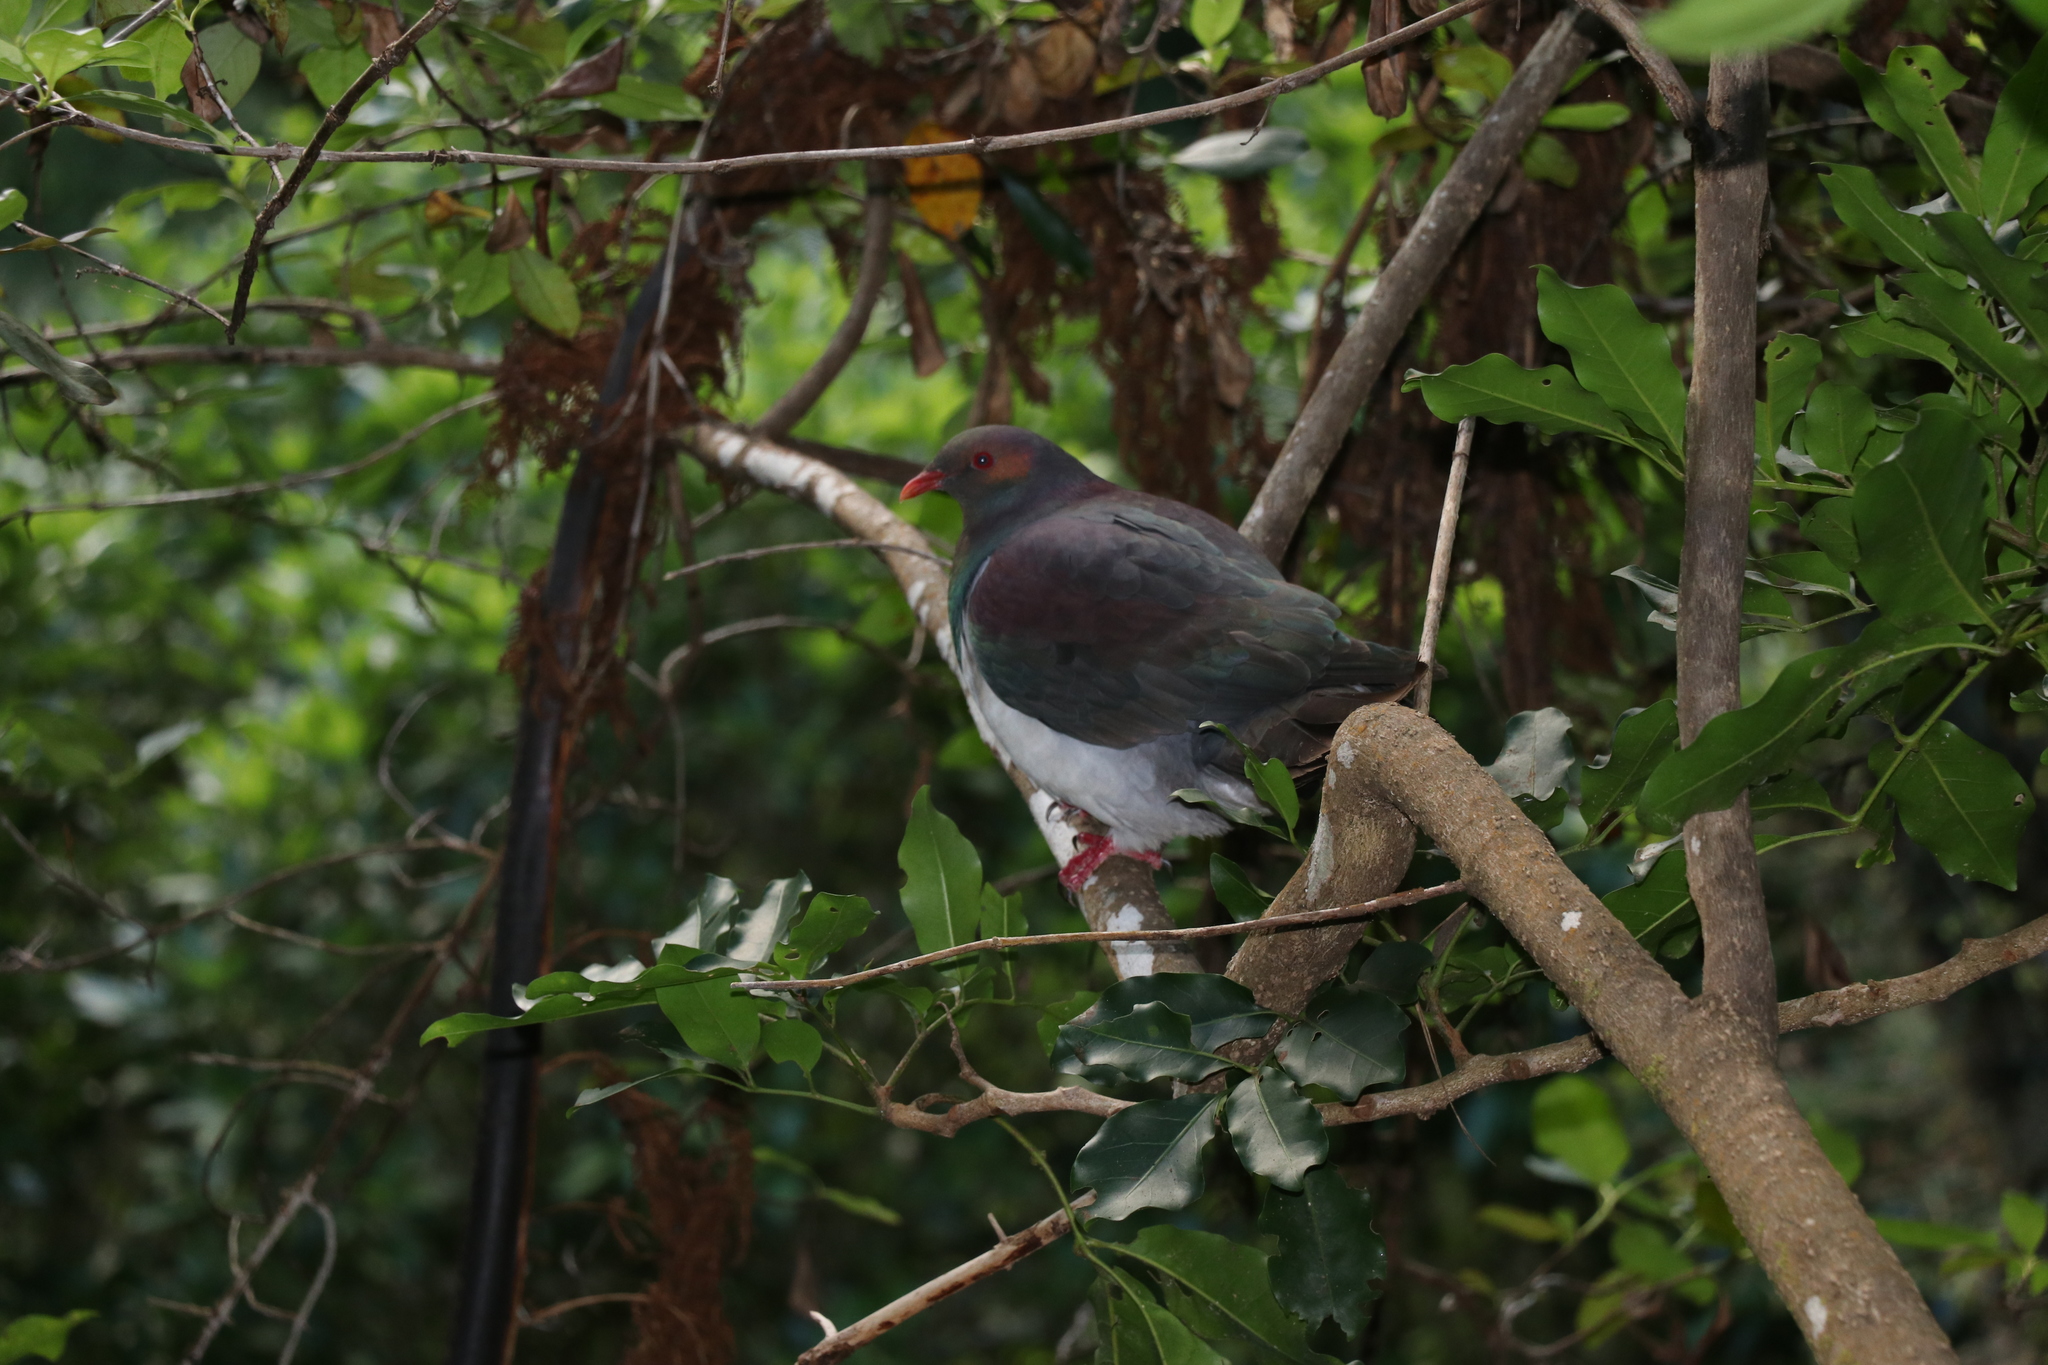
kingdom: Animalia
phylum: Chordata
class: Aves
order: Columbiformes
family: Columbidae
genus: Hemiphaga
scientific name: Hemiphaga novaeseelandiae
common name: New zealand pigeon
